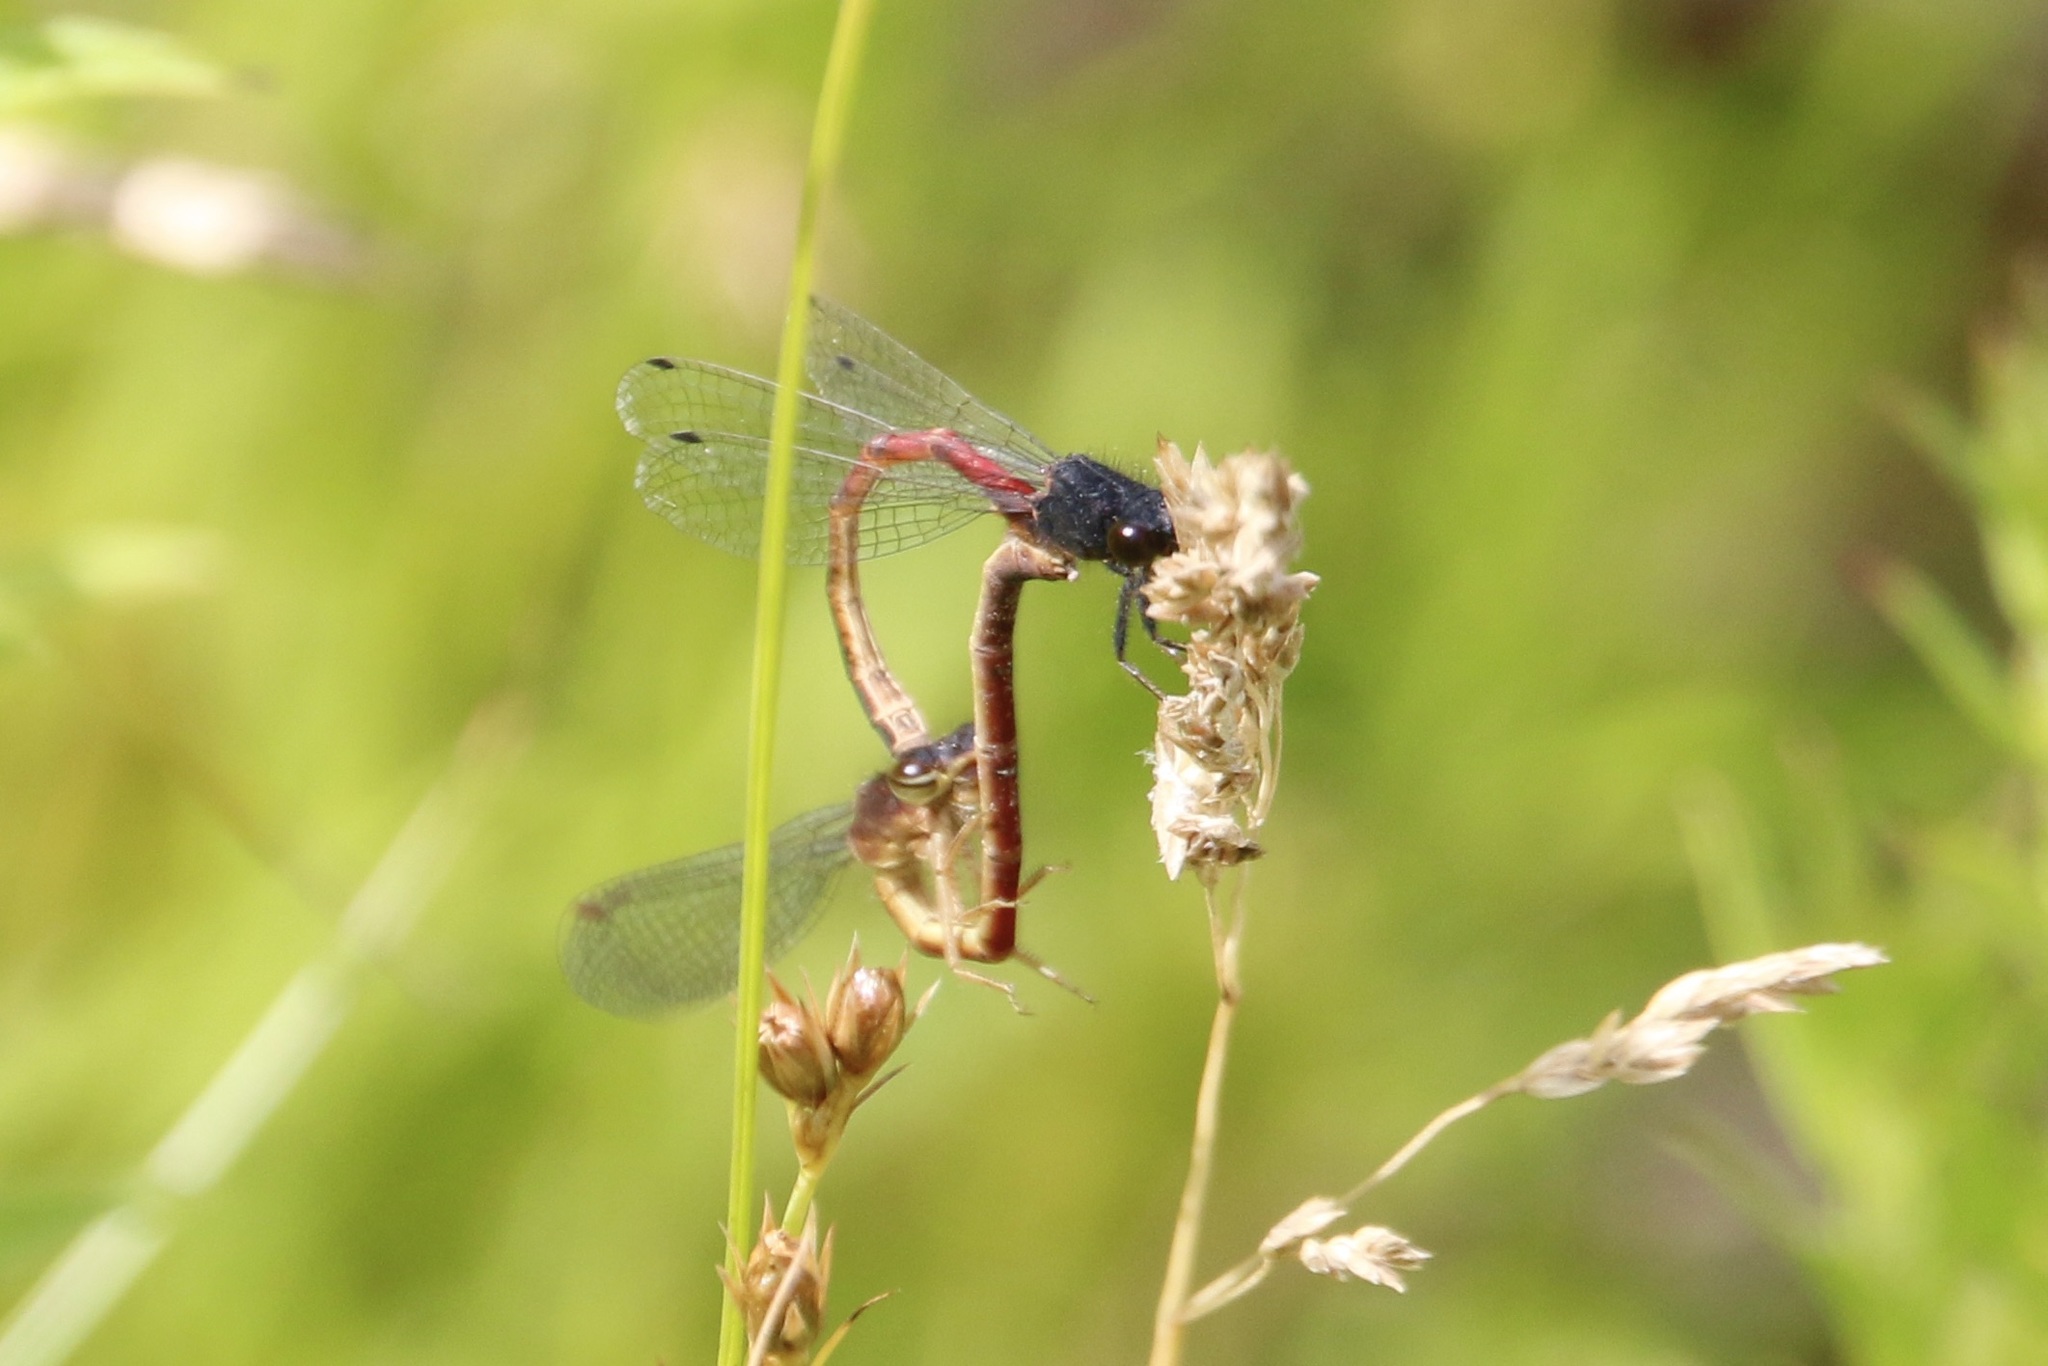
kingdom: Animalia
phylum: Arthropoda
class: Insecta
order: Odonata
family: Coenagrionidae
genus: Amphiagrion
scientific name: Amphiagrion abbreviatum
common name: Western red damsel
